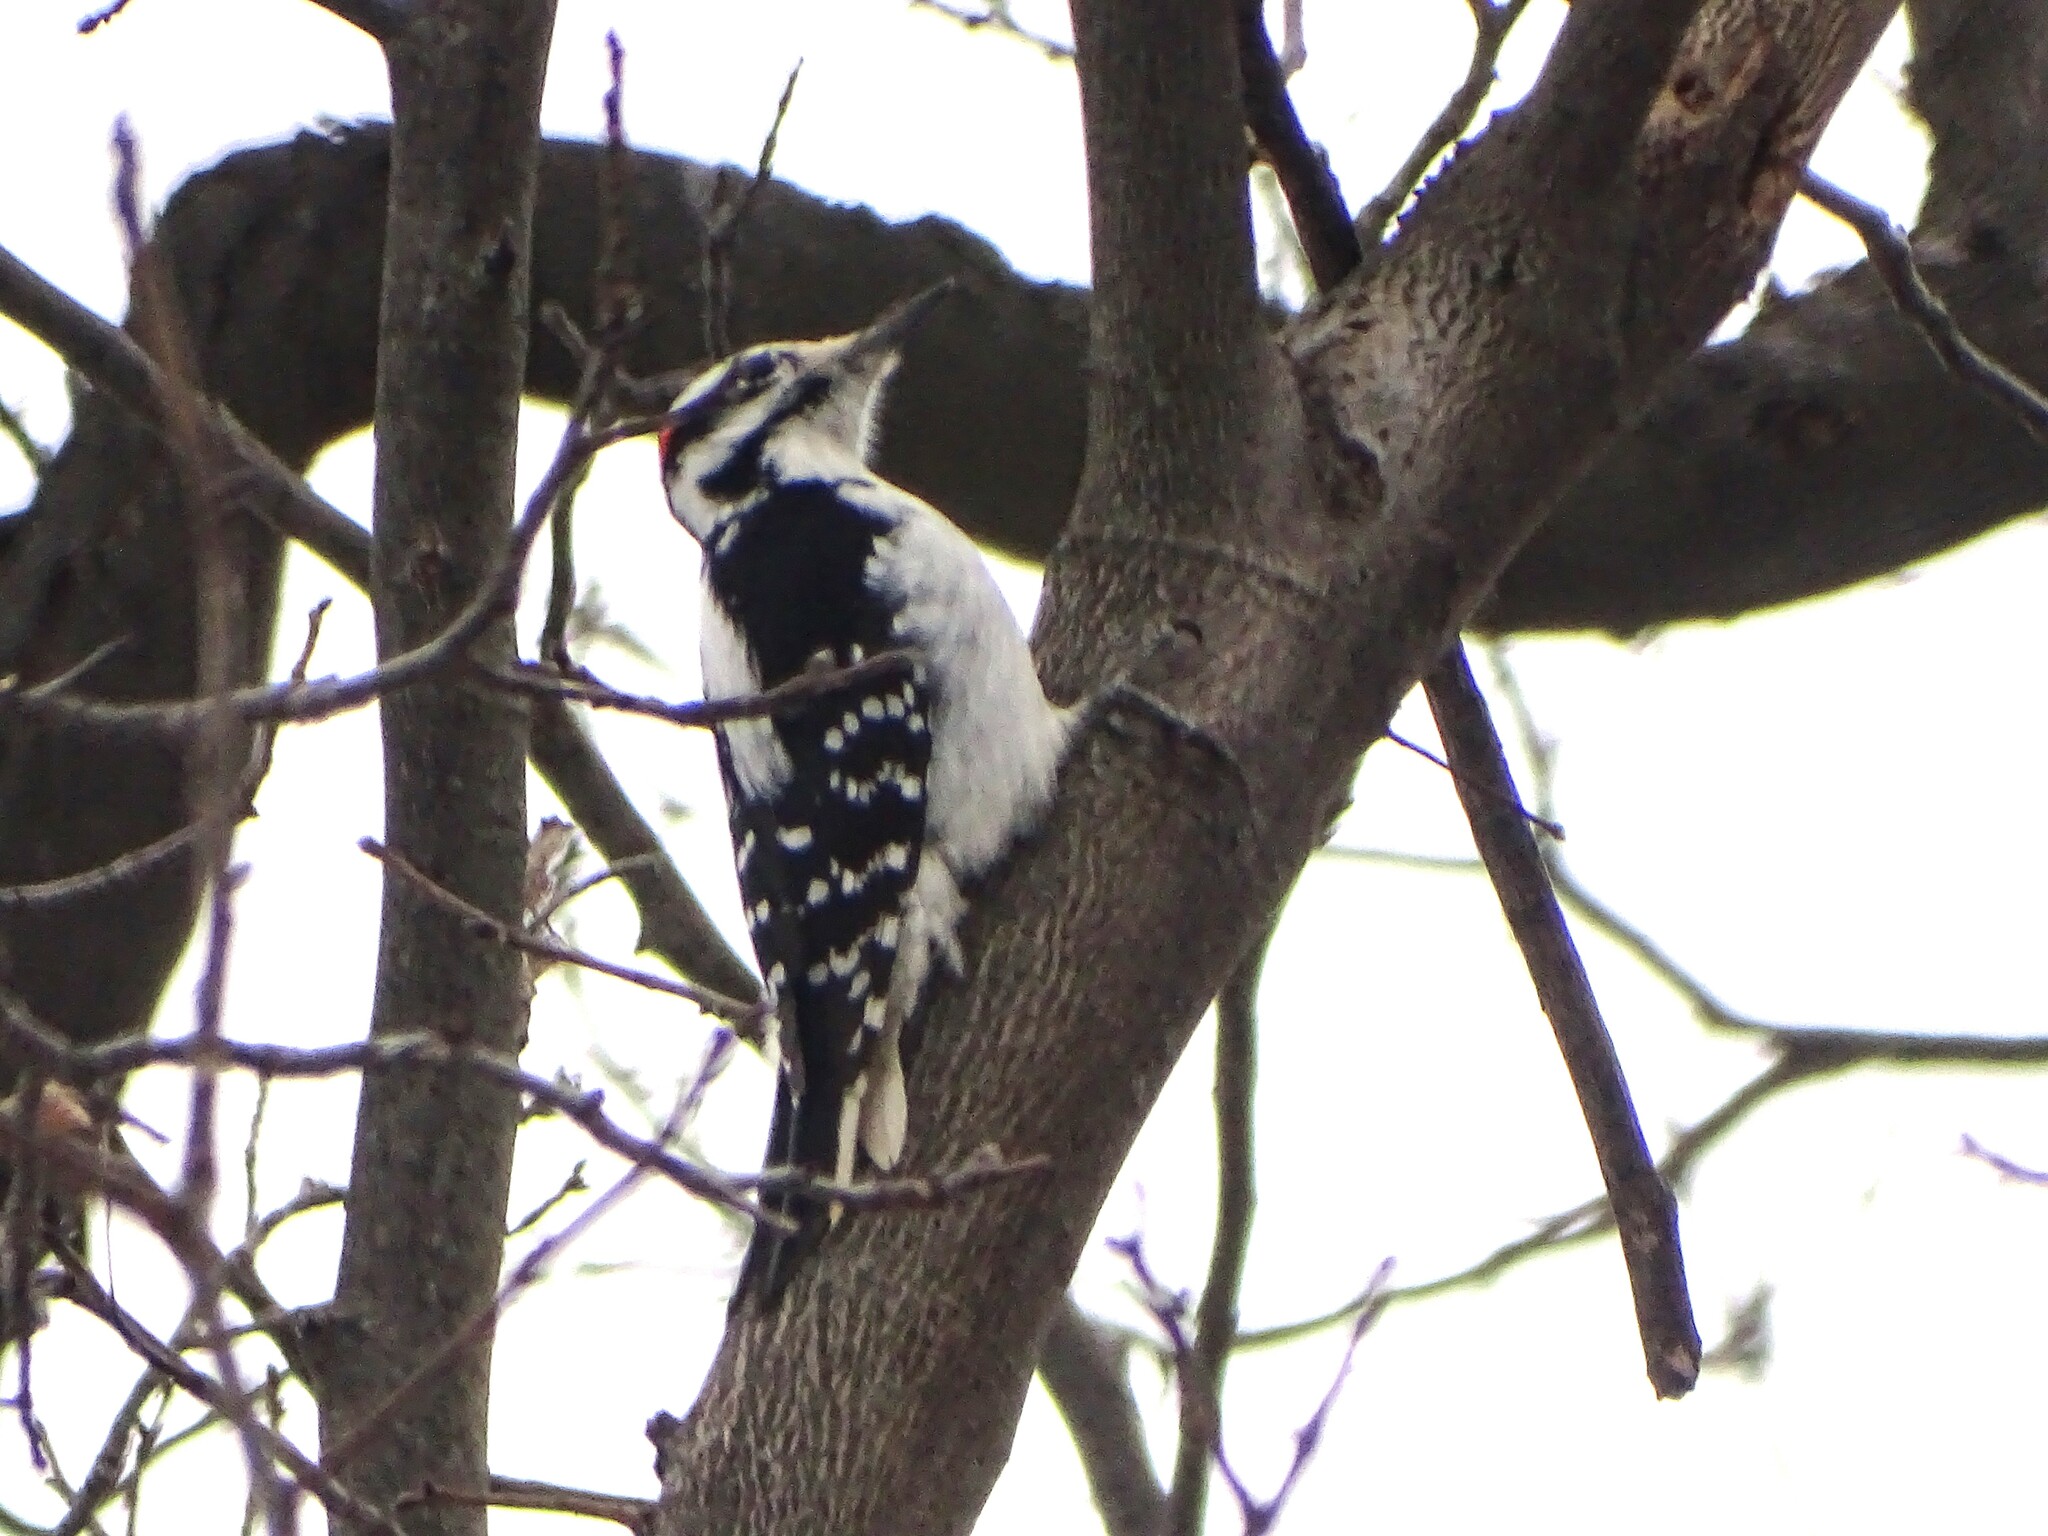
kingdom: Animalia
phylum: Chordata
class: Aves
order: Piciformes
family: Picidae
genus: Leuconotopicus
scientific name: Leuconotopicus villosus
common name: Hairy woodpecker
